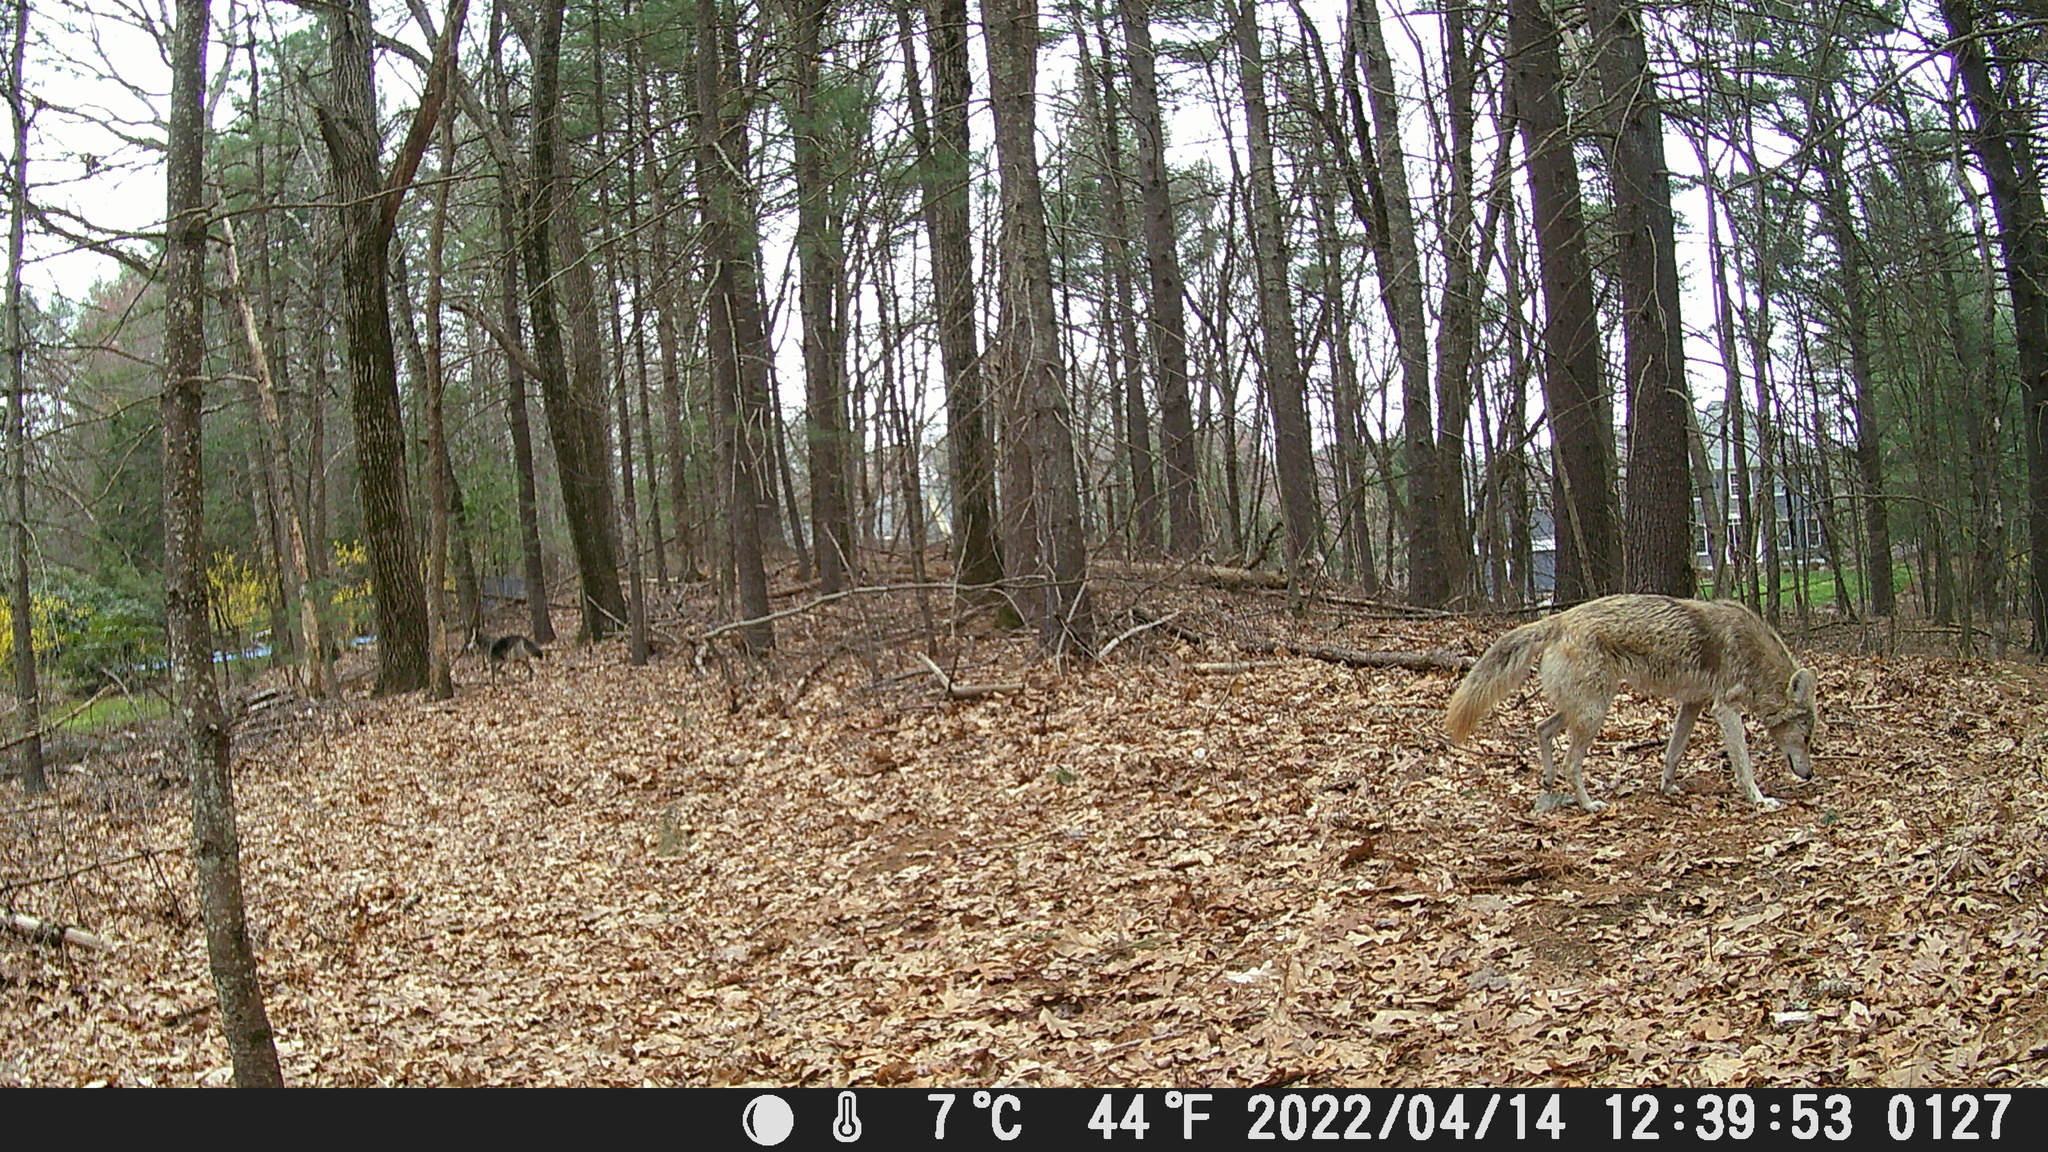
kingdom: Animalia
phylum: Chordata
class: Mammalia
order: Carnivora
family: Canidae
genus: Canis
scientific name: Canis latrans
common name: Coyote
